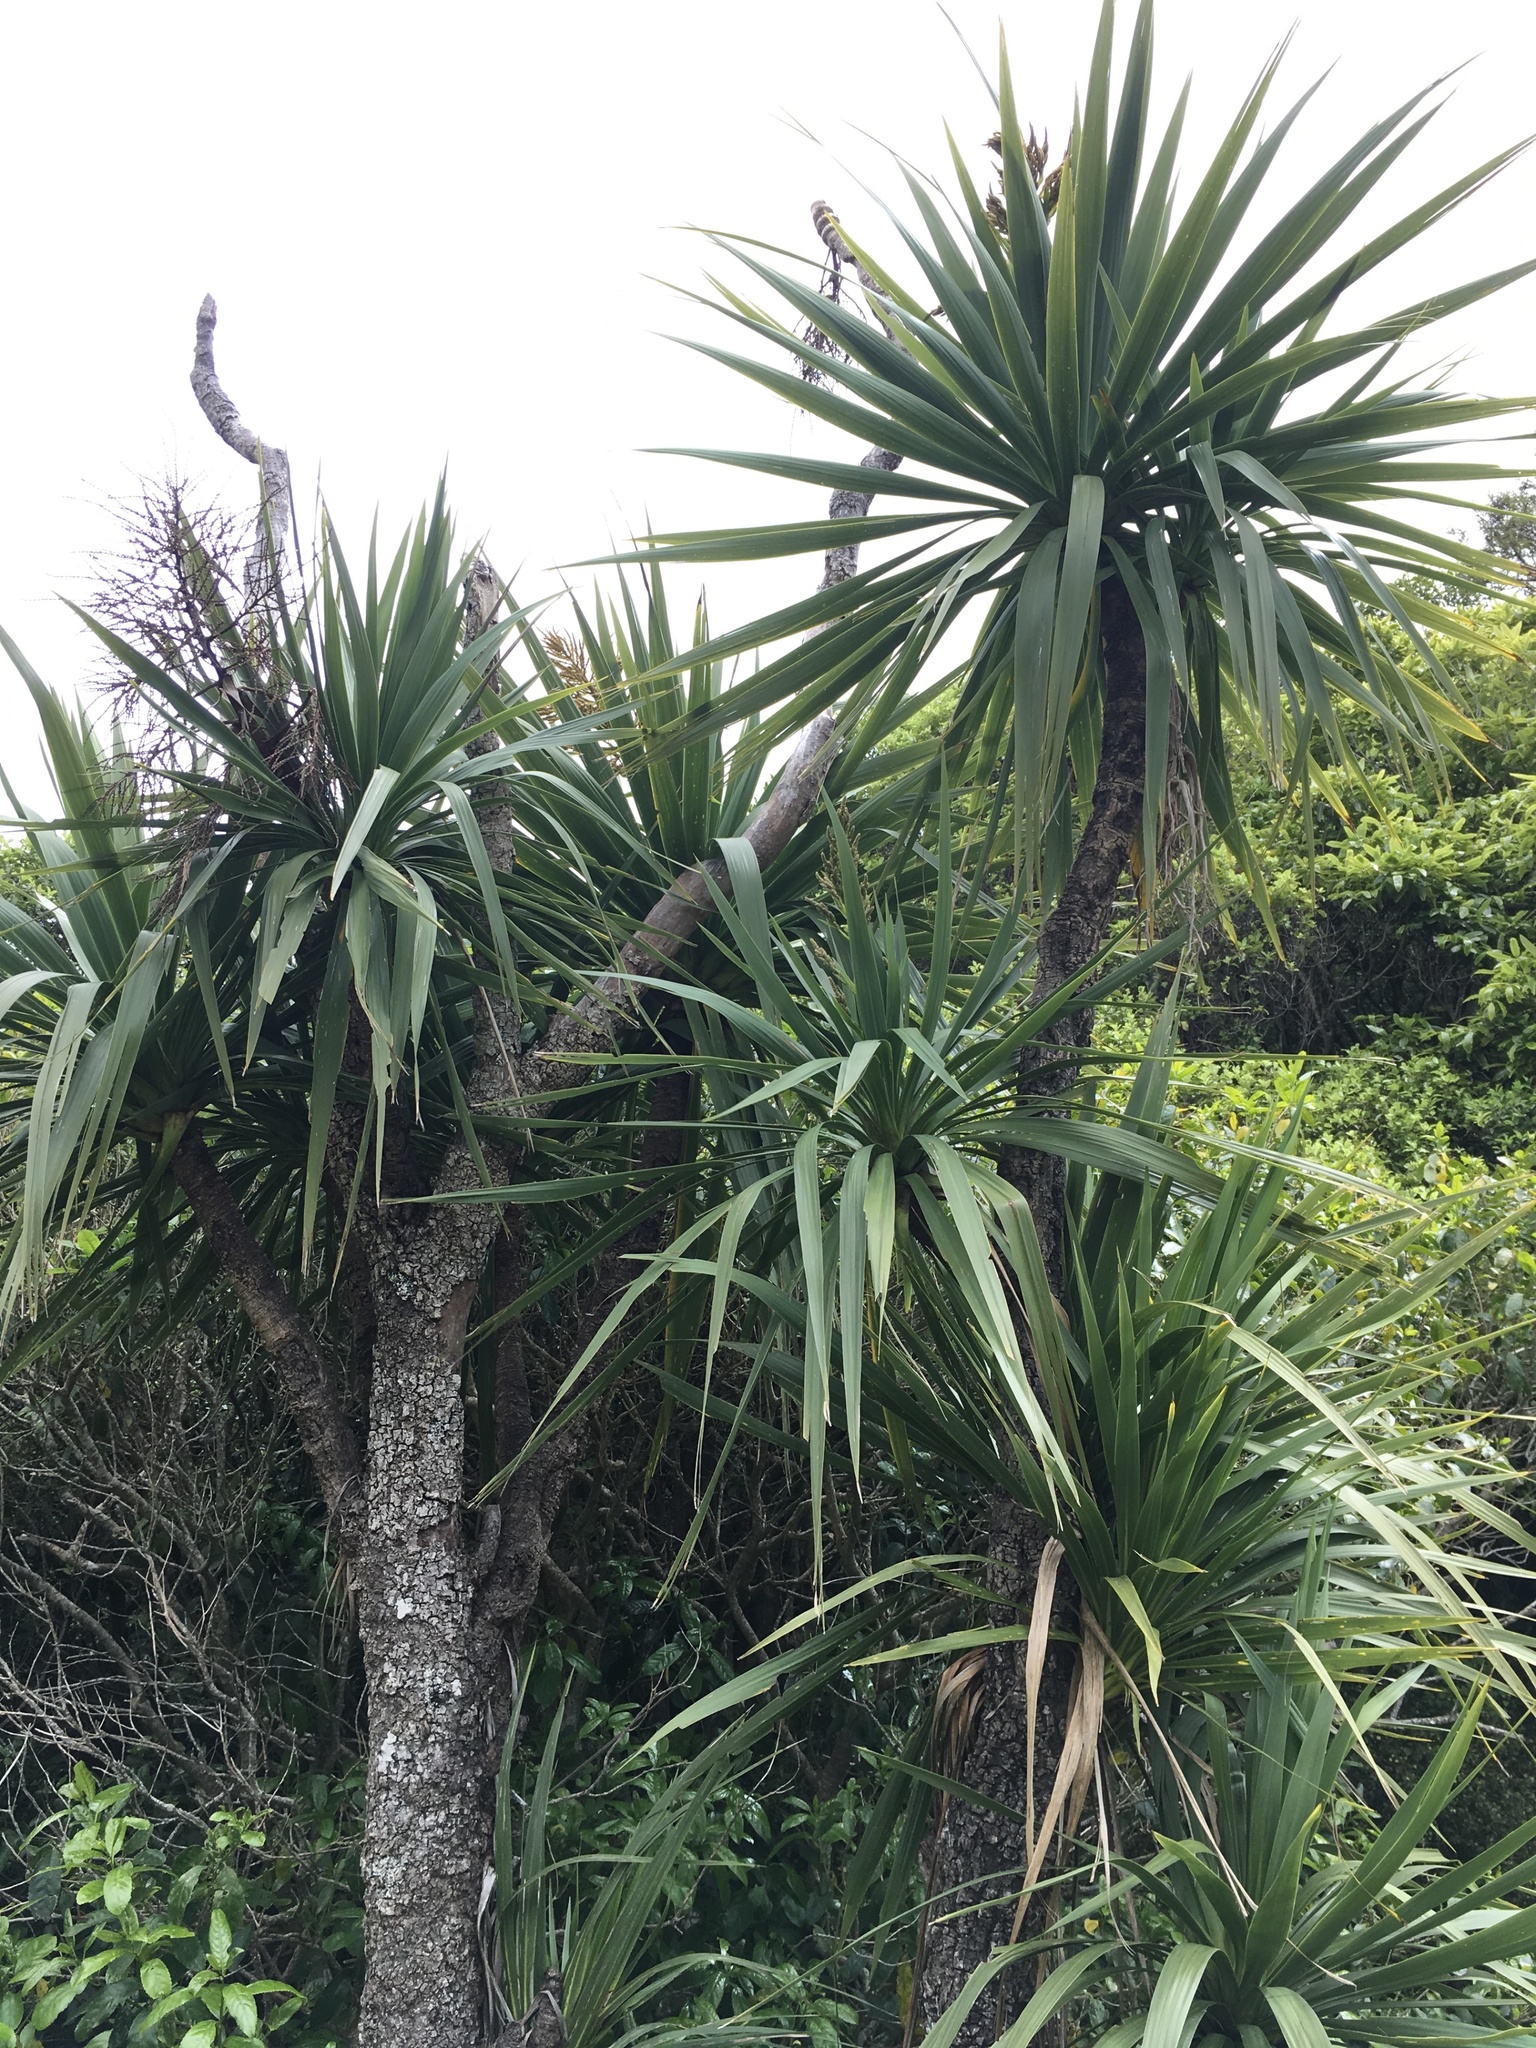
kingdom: Plantae
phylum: Tracheophyta
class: Liliopsida
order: Asparagales
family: Asparagaceae
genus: Cordyline
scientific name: Cordyline australis
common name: Cabbage-palm
